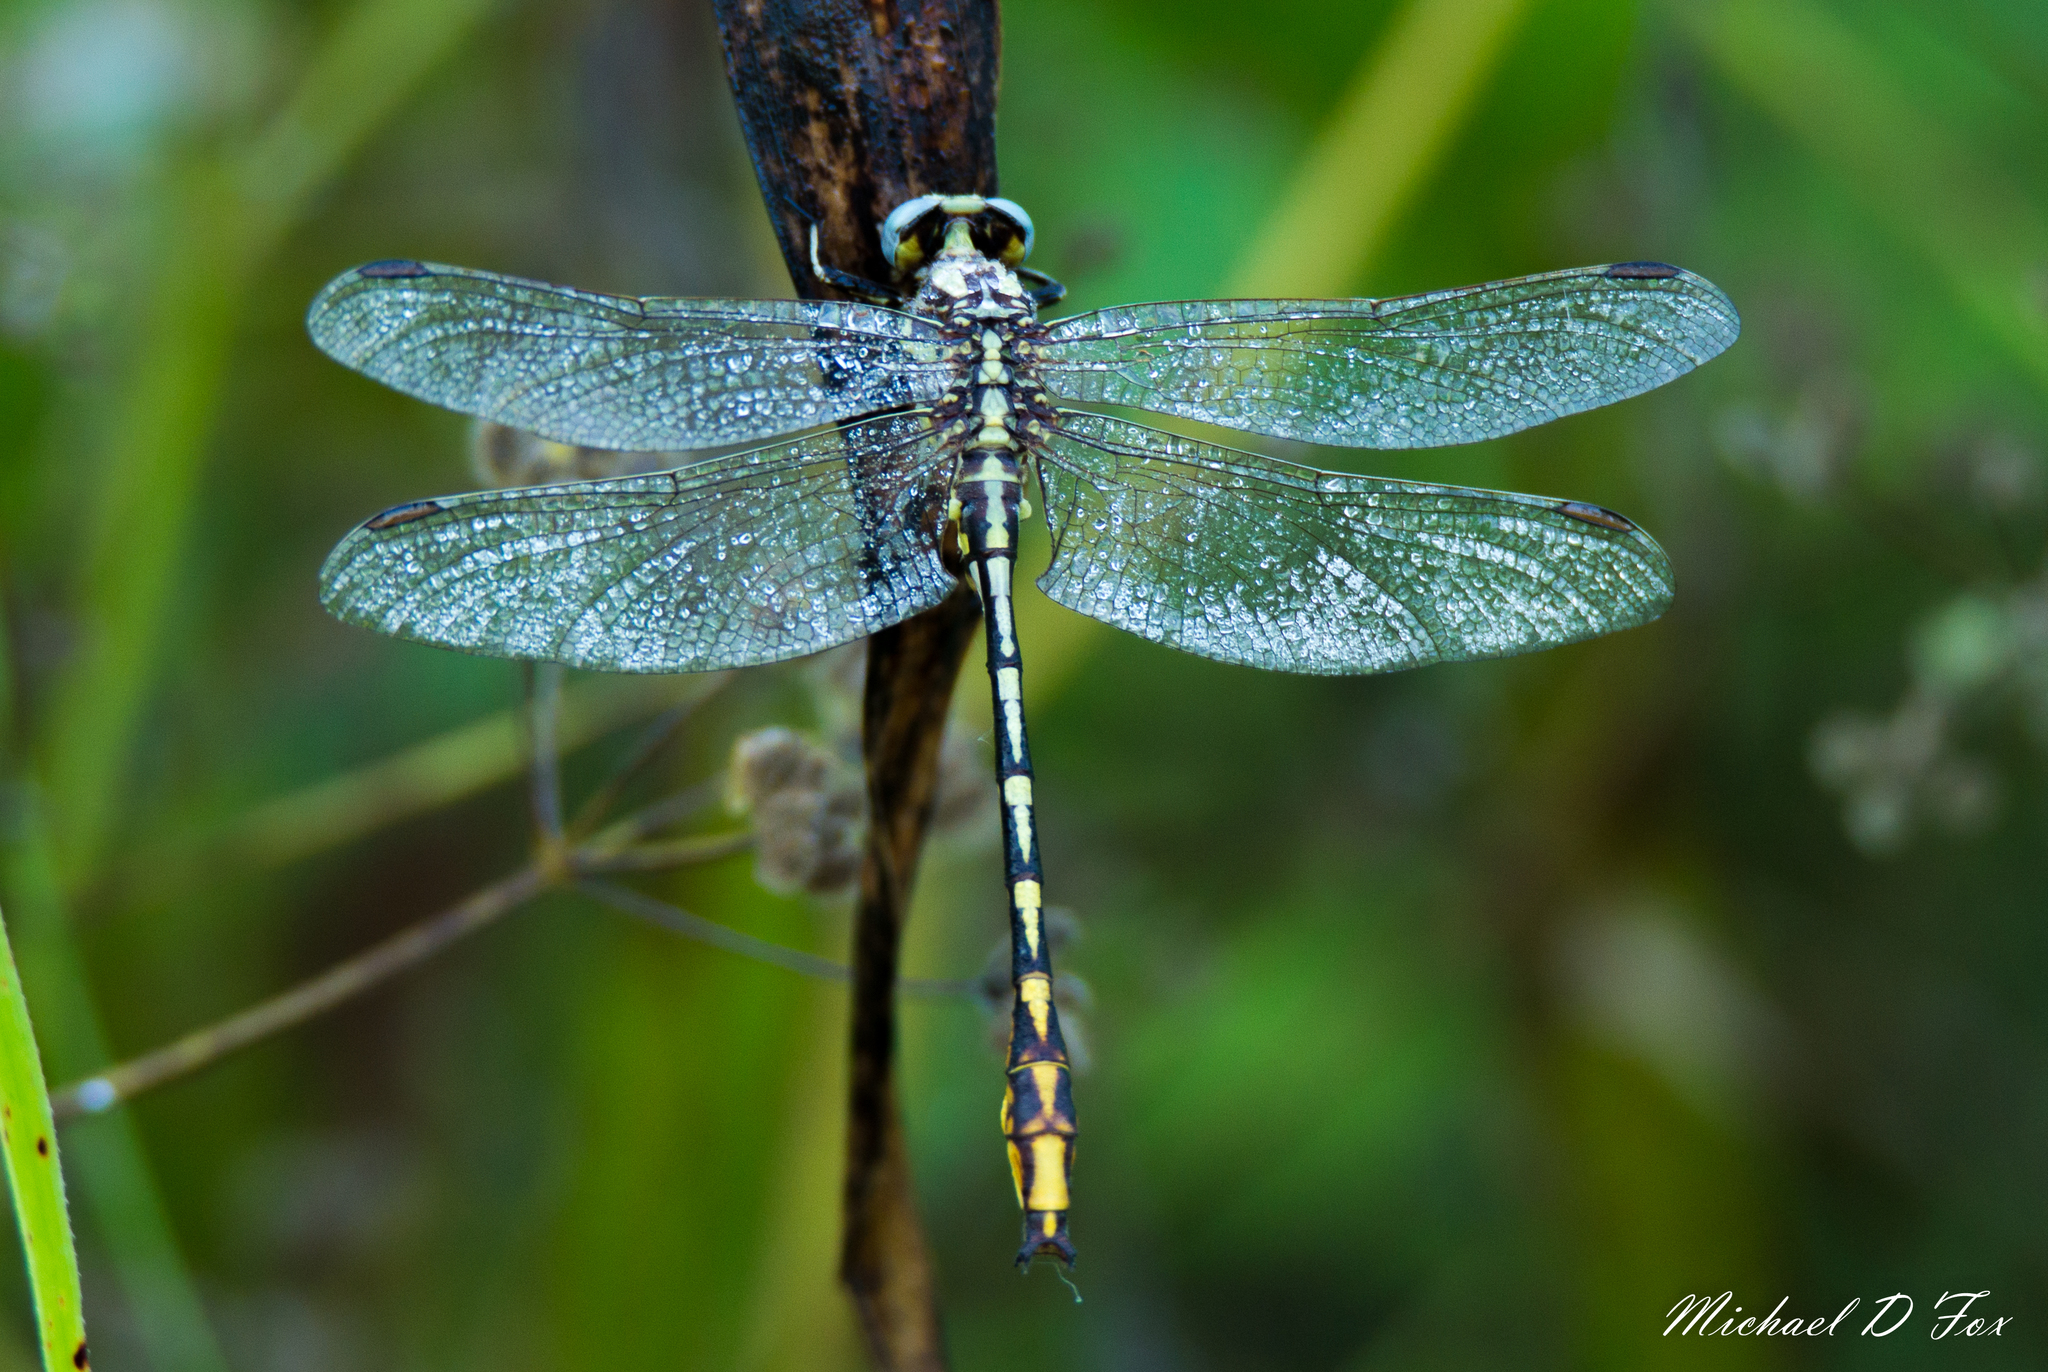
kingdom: Animalia
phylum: Arthropoda
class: Insecta
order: Odonata
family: Gomphidae
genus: Phanogomphus
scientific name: Phanogomphus militaris
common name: Sulphur-tipped clubtail
